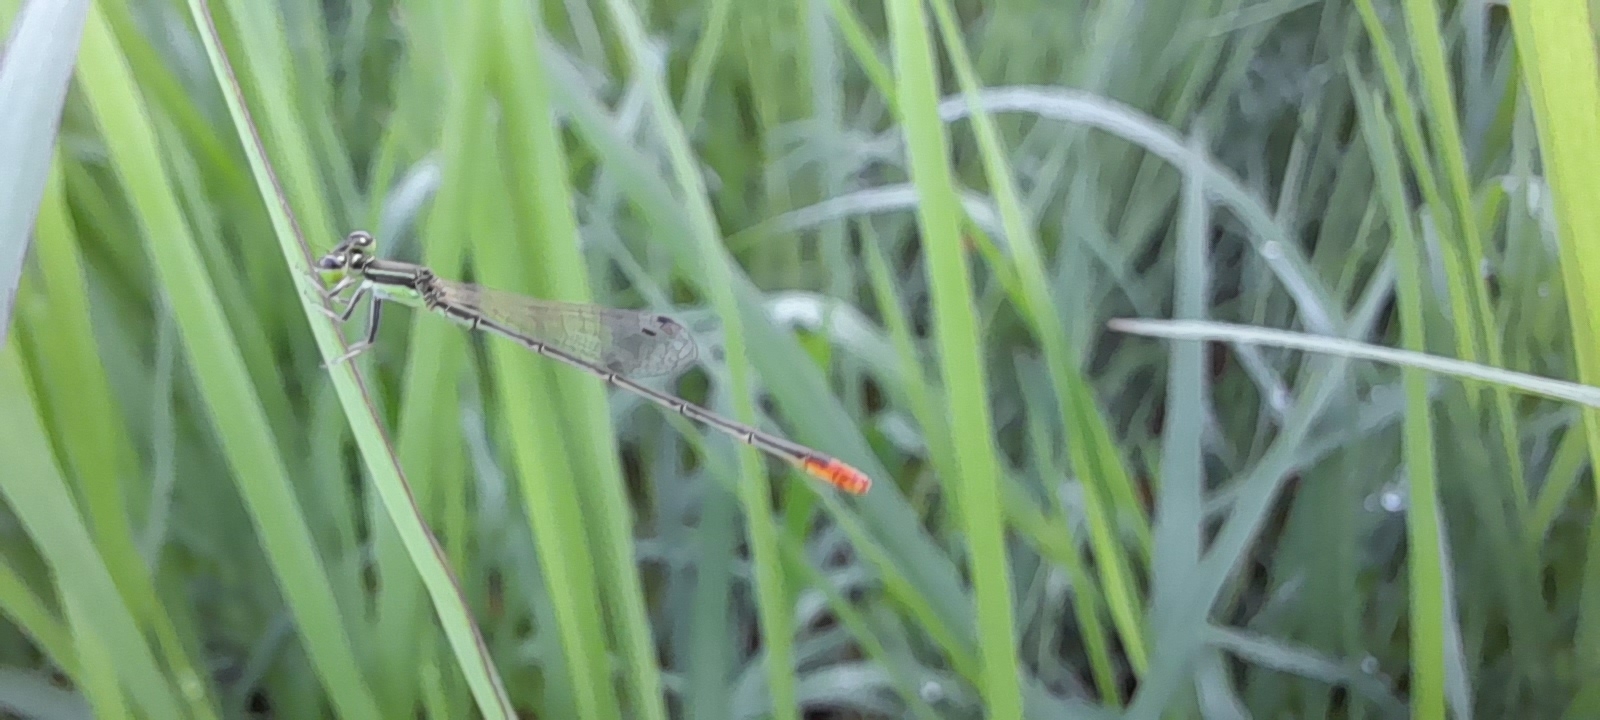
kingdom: Animalia
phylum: Arthropoda
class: Insecta
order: Odonata
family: Coenagrionidae
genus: Agriocnemis
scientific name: Agriocnemis pygmaea
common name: Pygmy wisp
